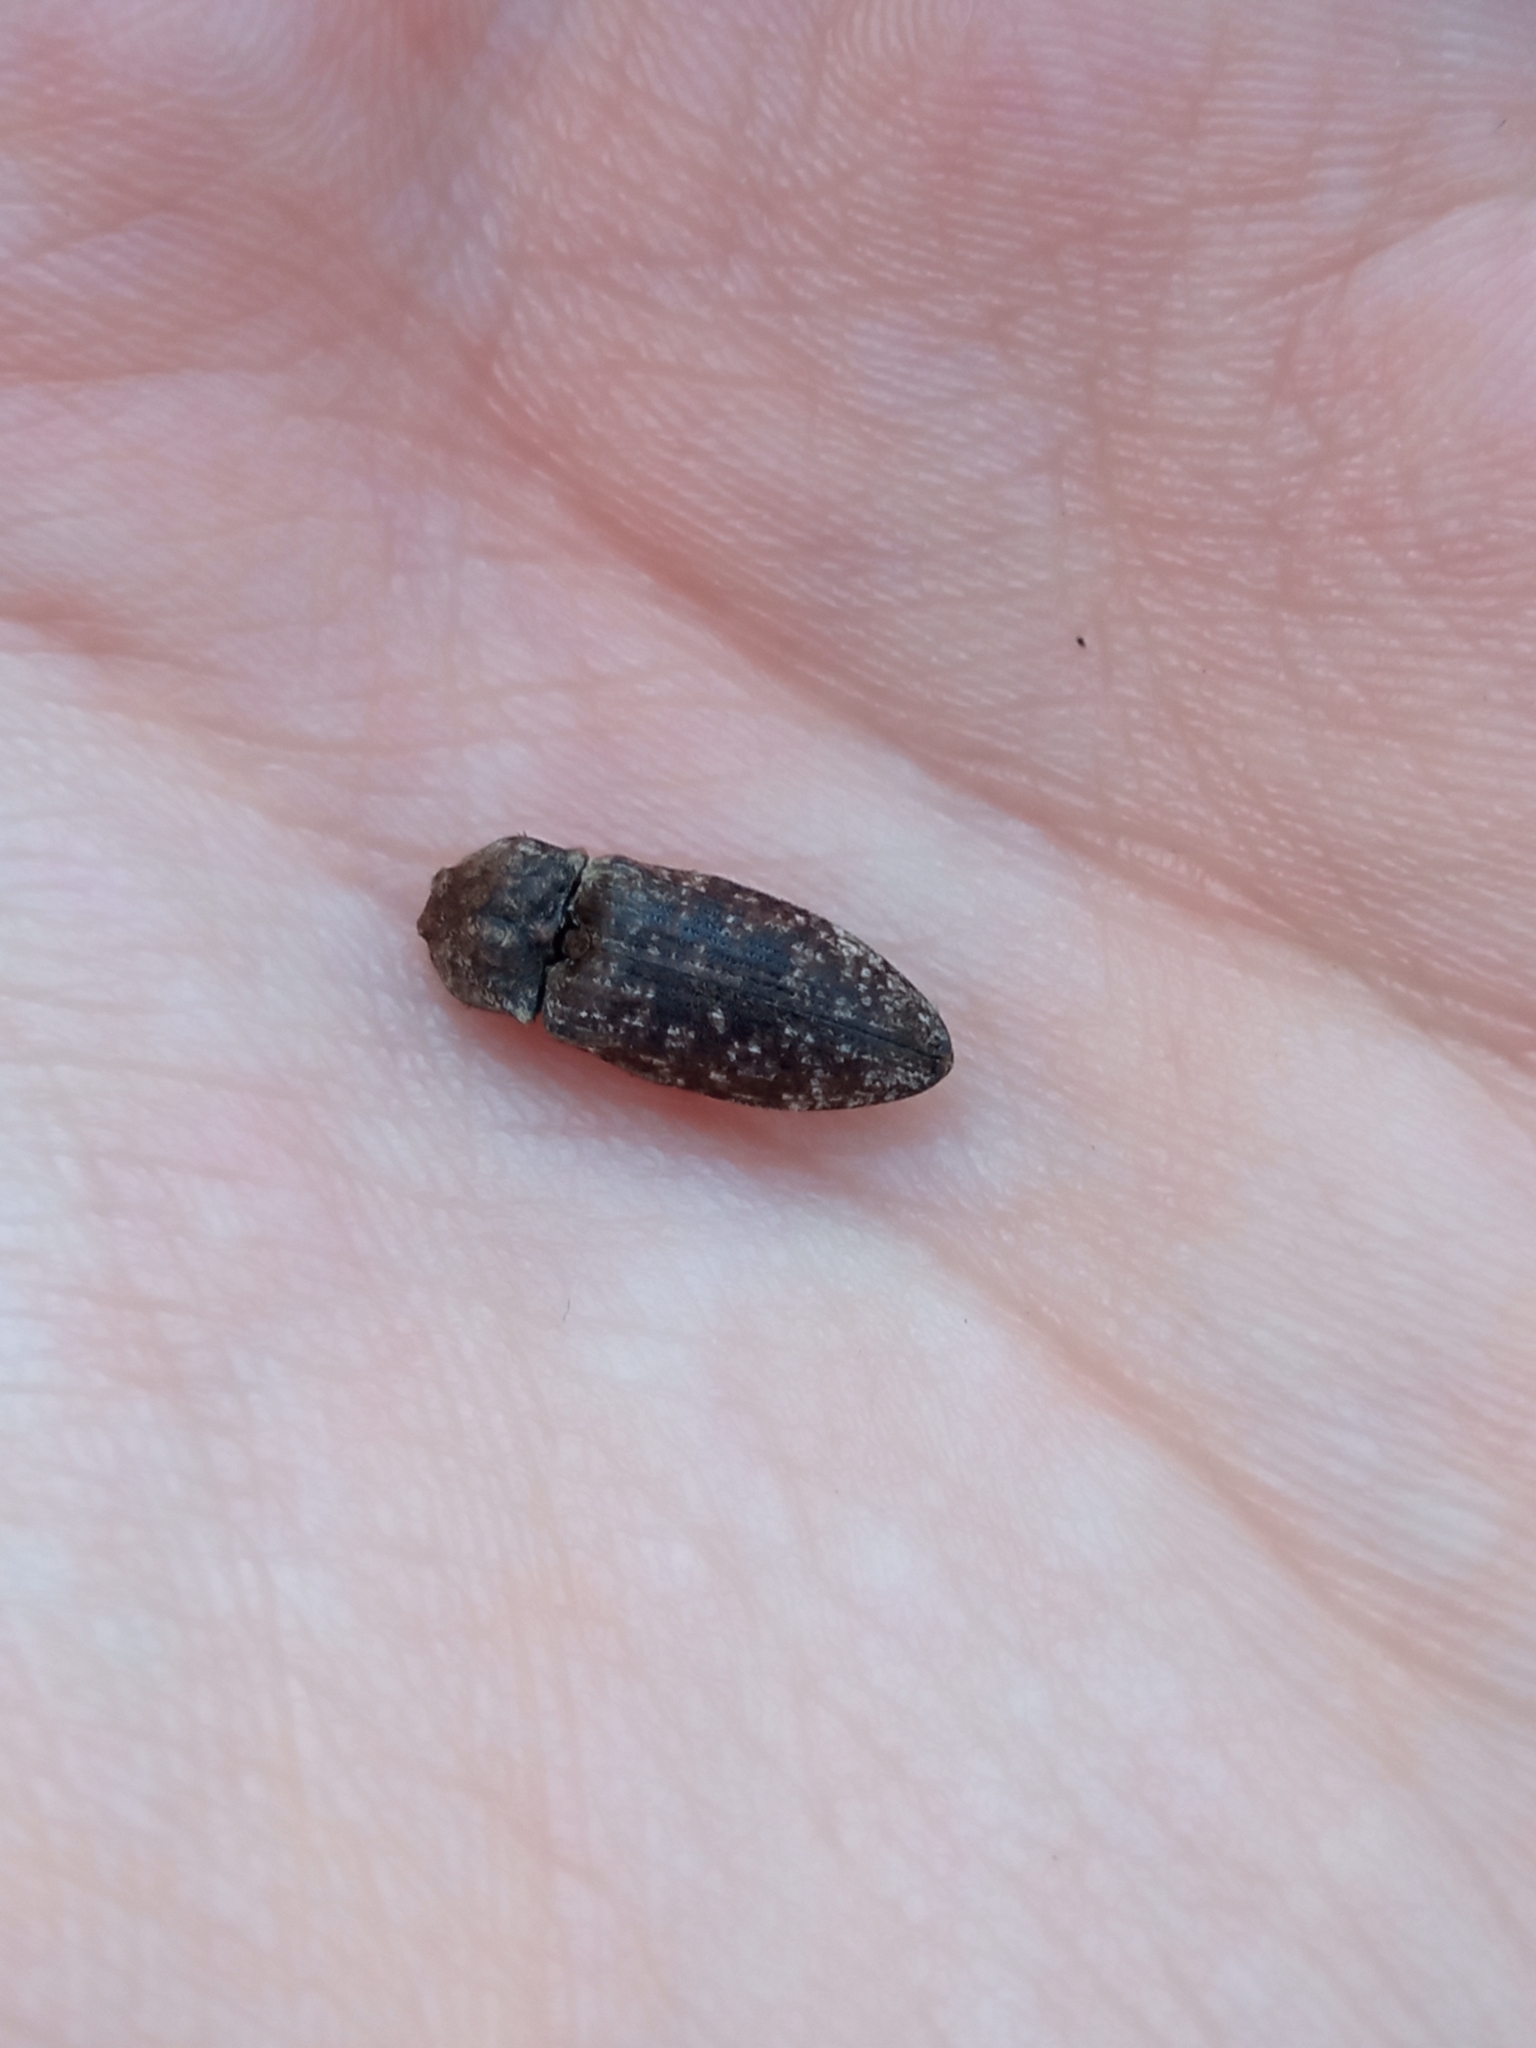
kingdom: Animalia
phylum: Arthropoda
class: Insecta
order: Coleoptera
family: Elateridae
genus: Agrypnus
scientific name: Agrypnus murinus
